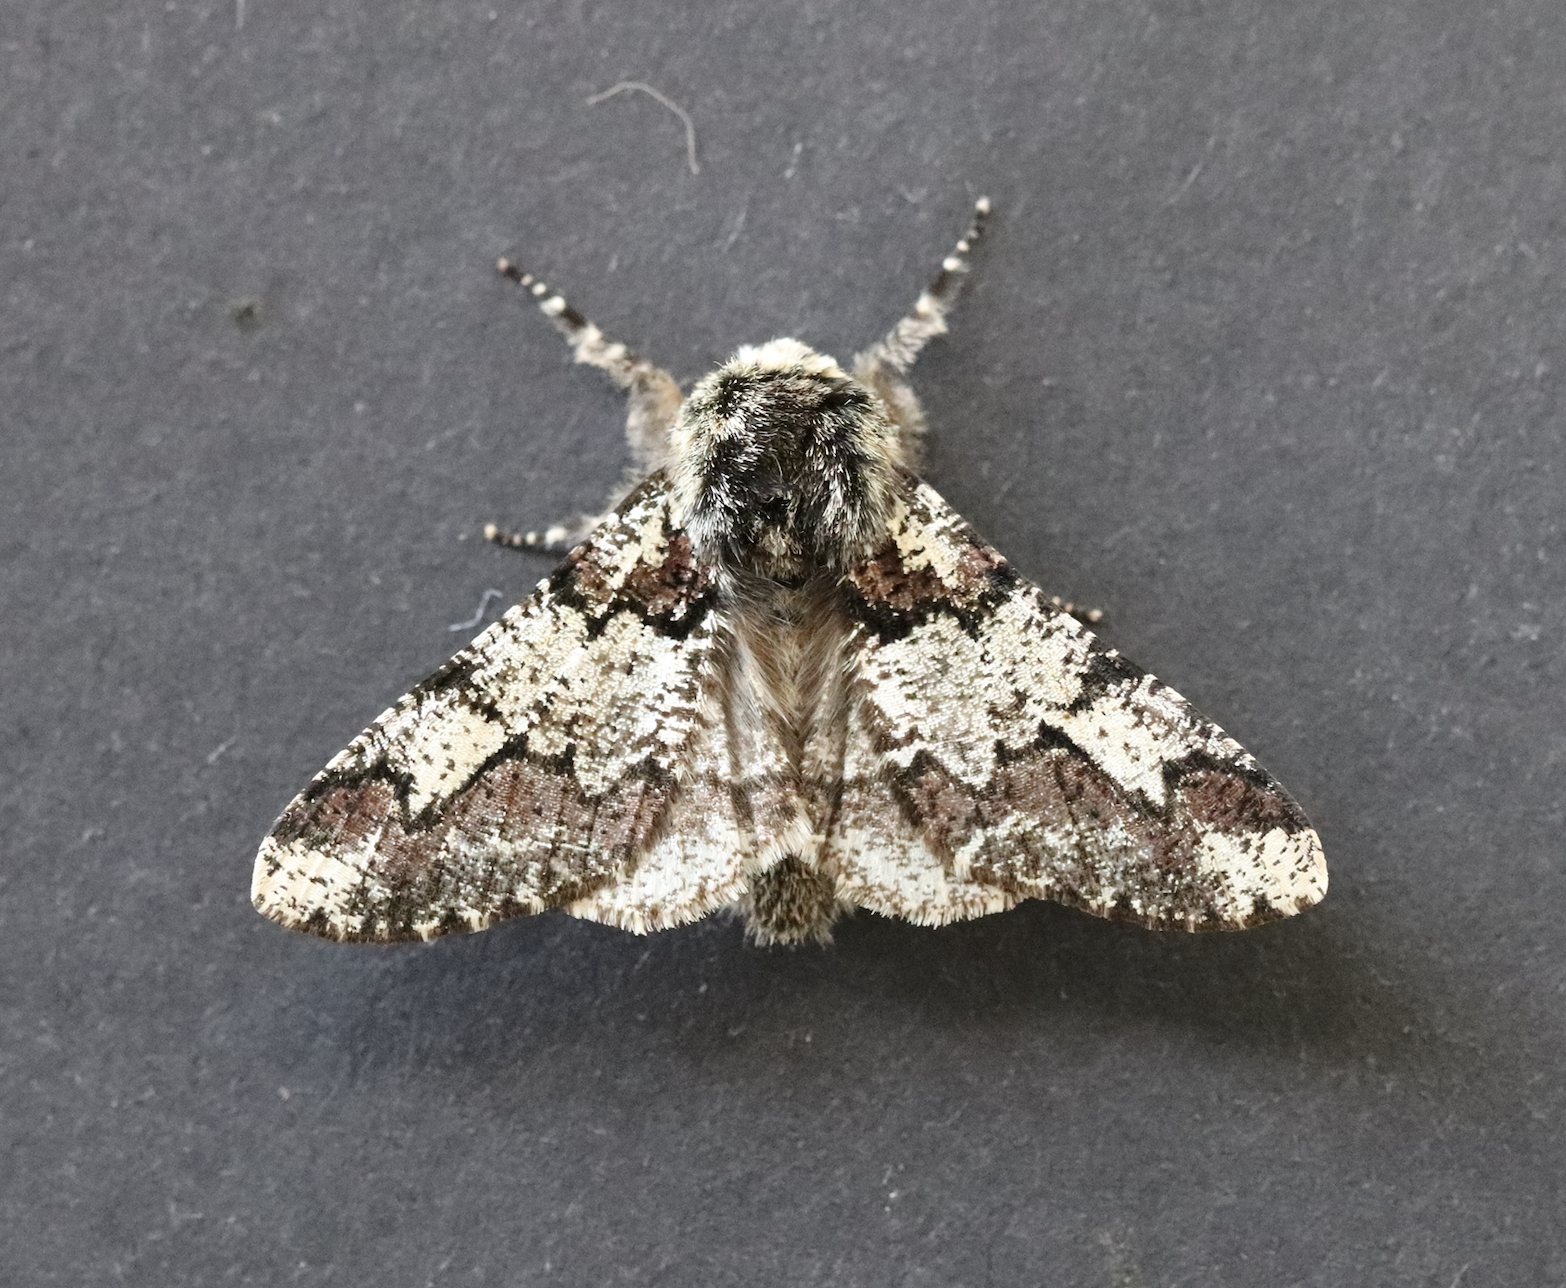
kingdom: Animalia
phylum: Arthropoda
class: Insecta
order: Lepidoptera
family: Geometridae
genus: Biston
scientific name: Biston strataria
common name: Oak beauty
